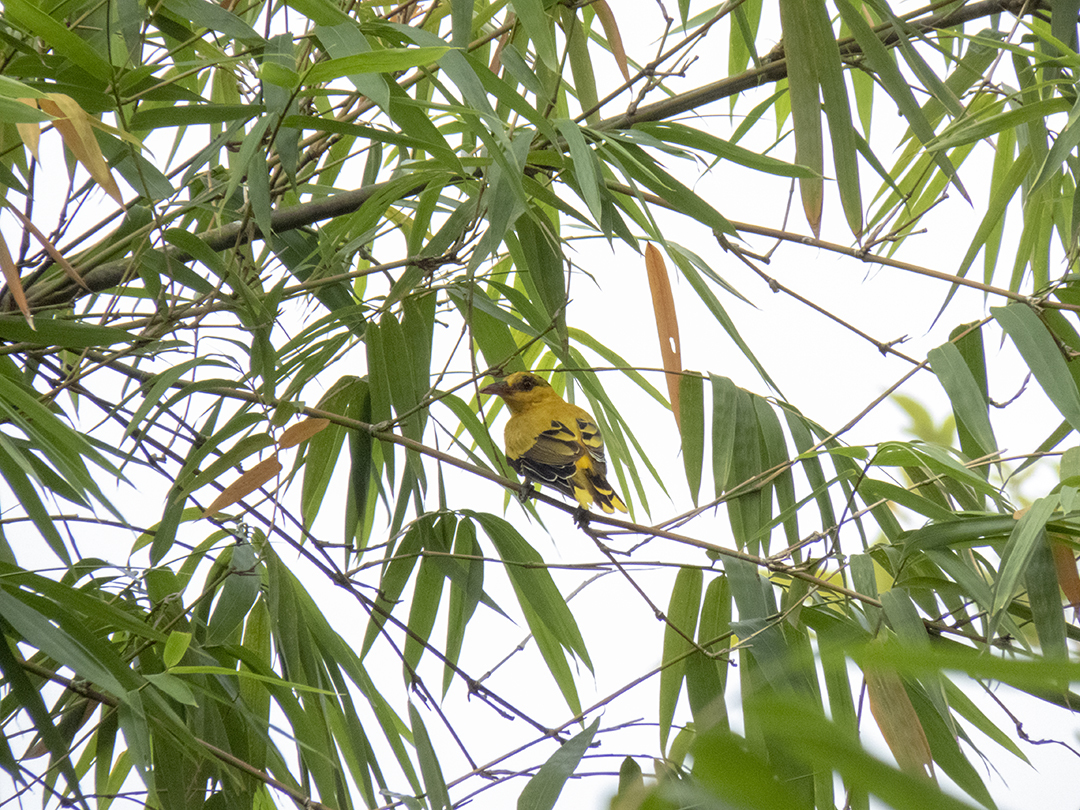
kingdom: Animalia
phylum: Chordata
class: Aves
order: Passeriformes
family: Oriolidae
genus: Oriolus
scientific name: Oriolus chinensis
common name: Black-naped oriole
